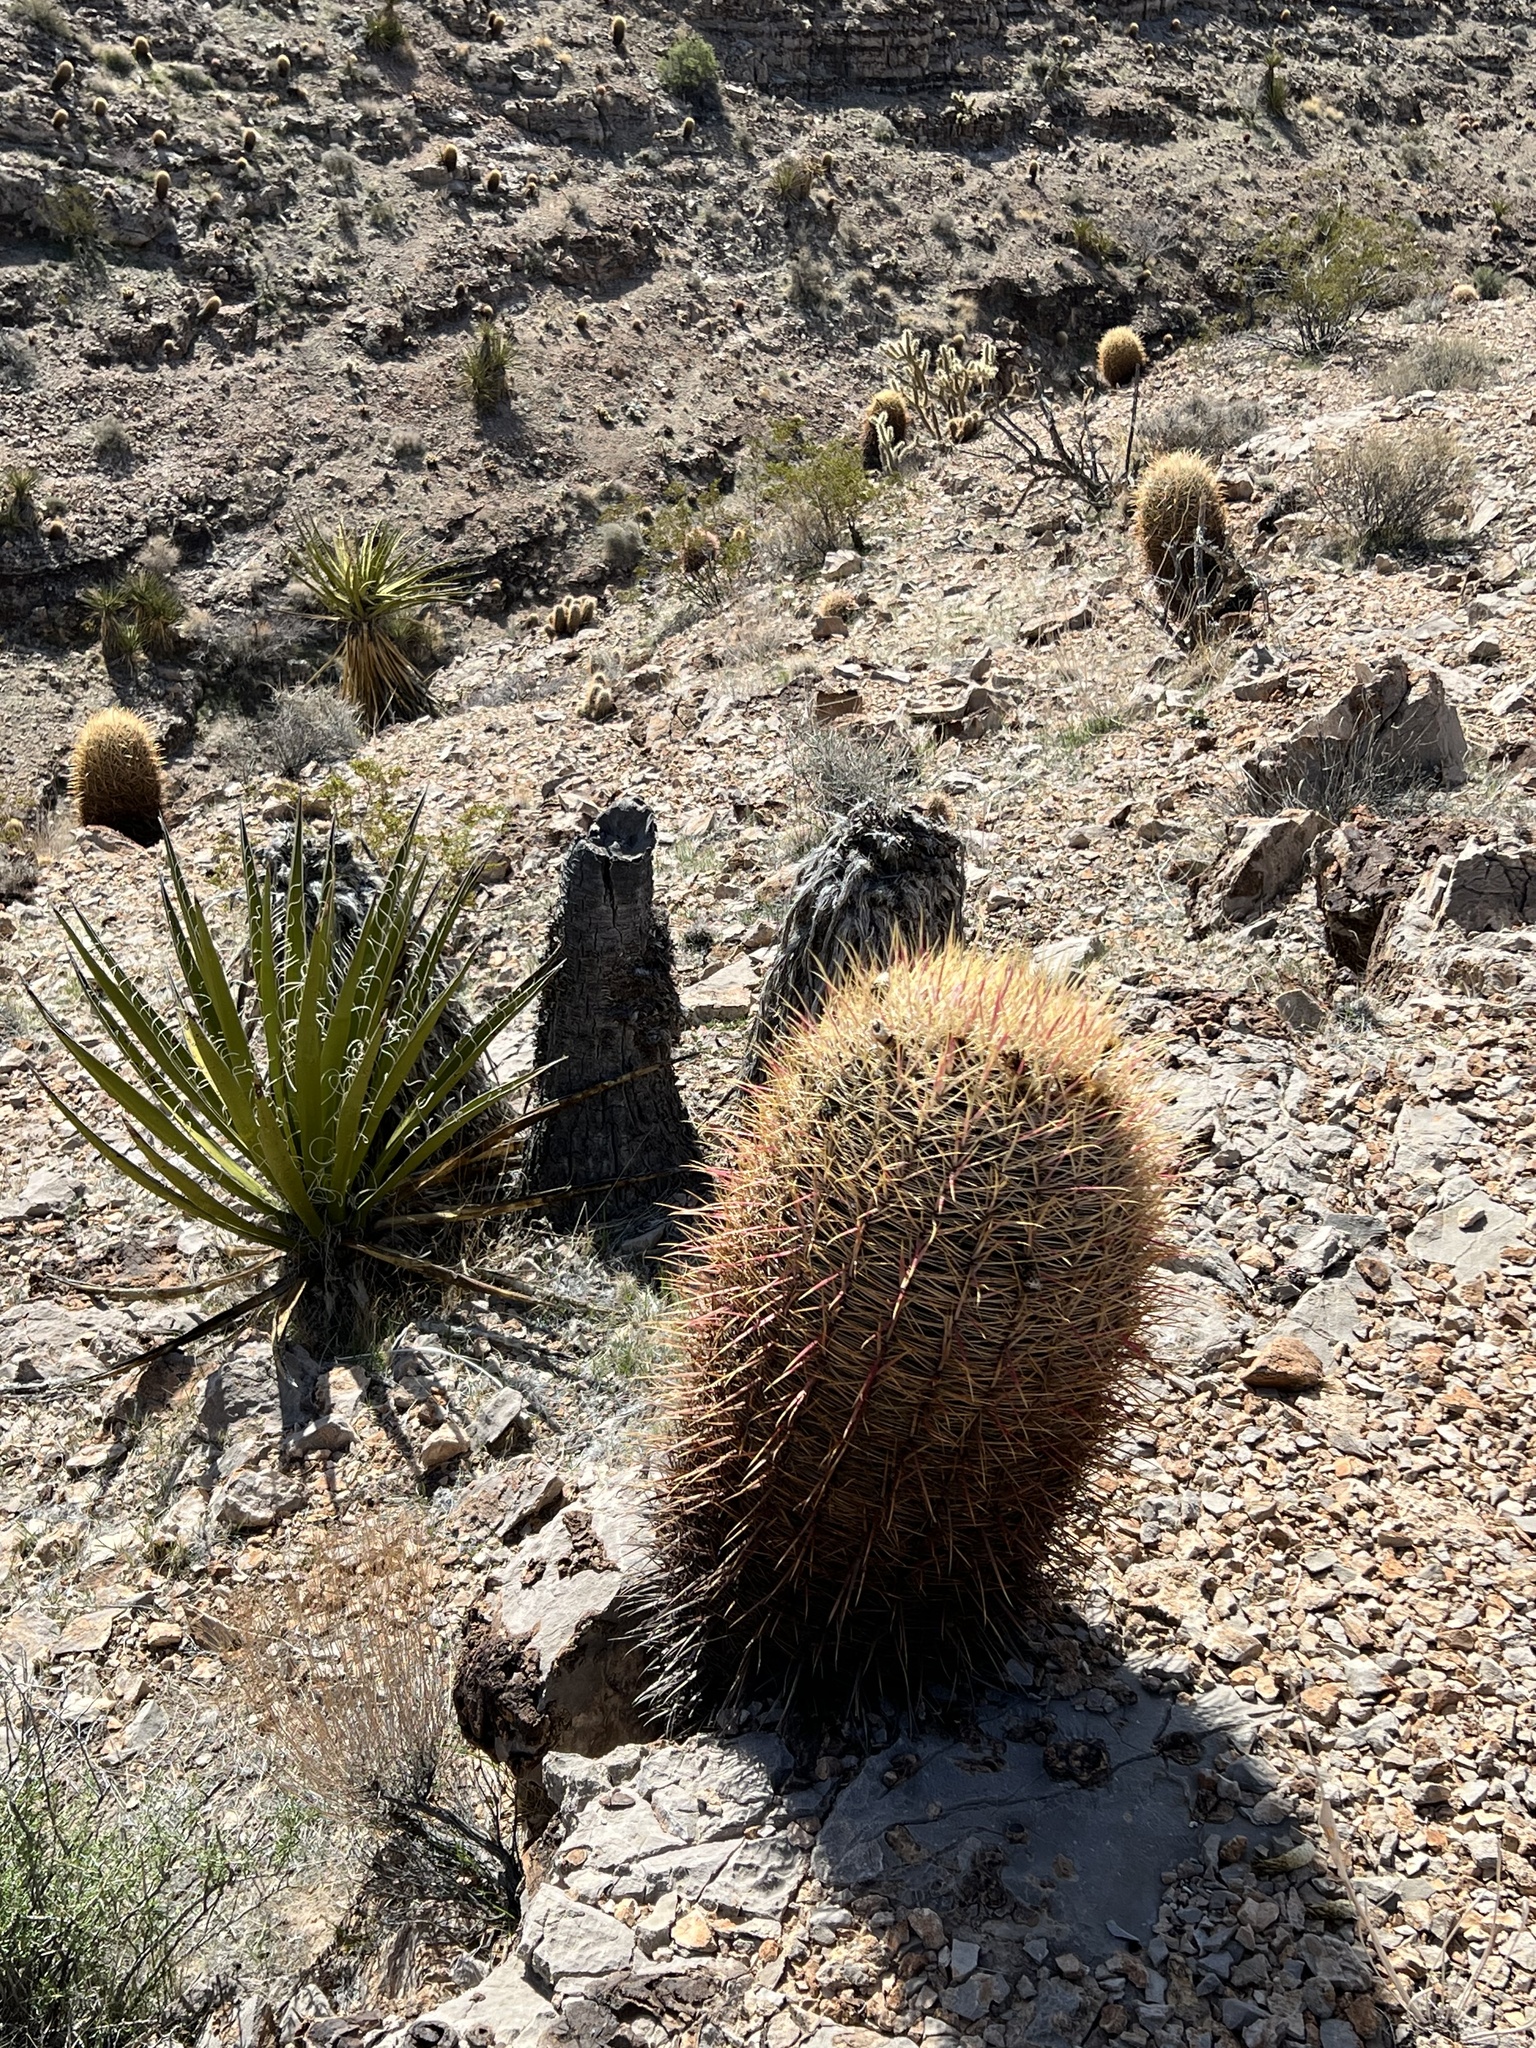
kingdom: Plantae
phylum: Tracheophyta
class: Magnoliopsida
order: Caryophyllales
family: Cactaceae
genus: Ferocactus
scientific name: Ferocactus cylindraceus
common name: California barrel cactus
